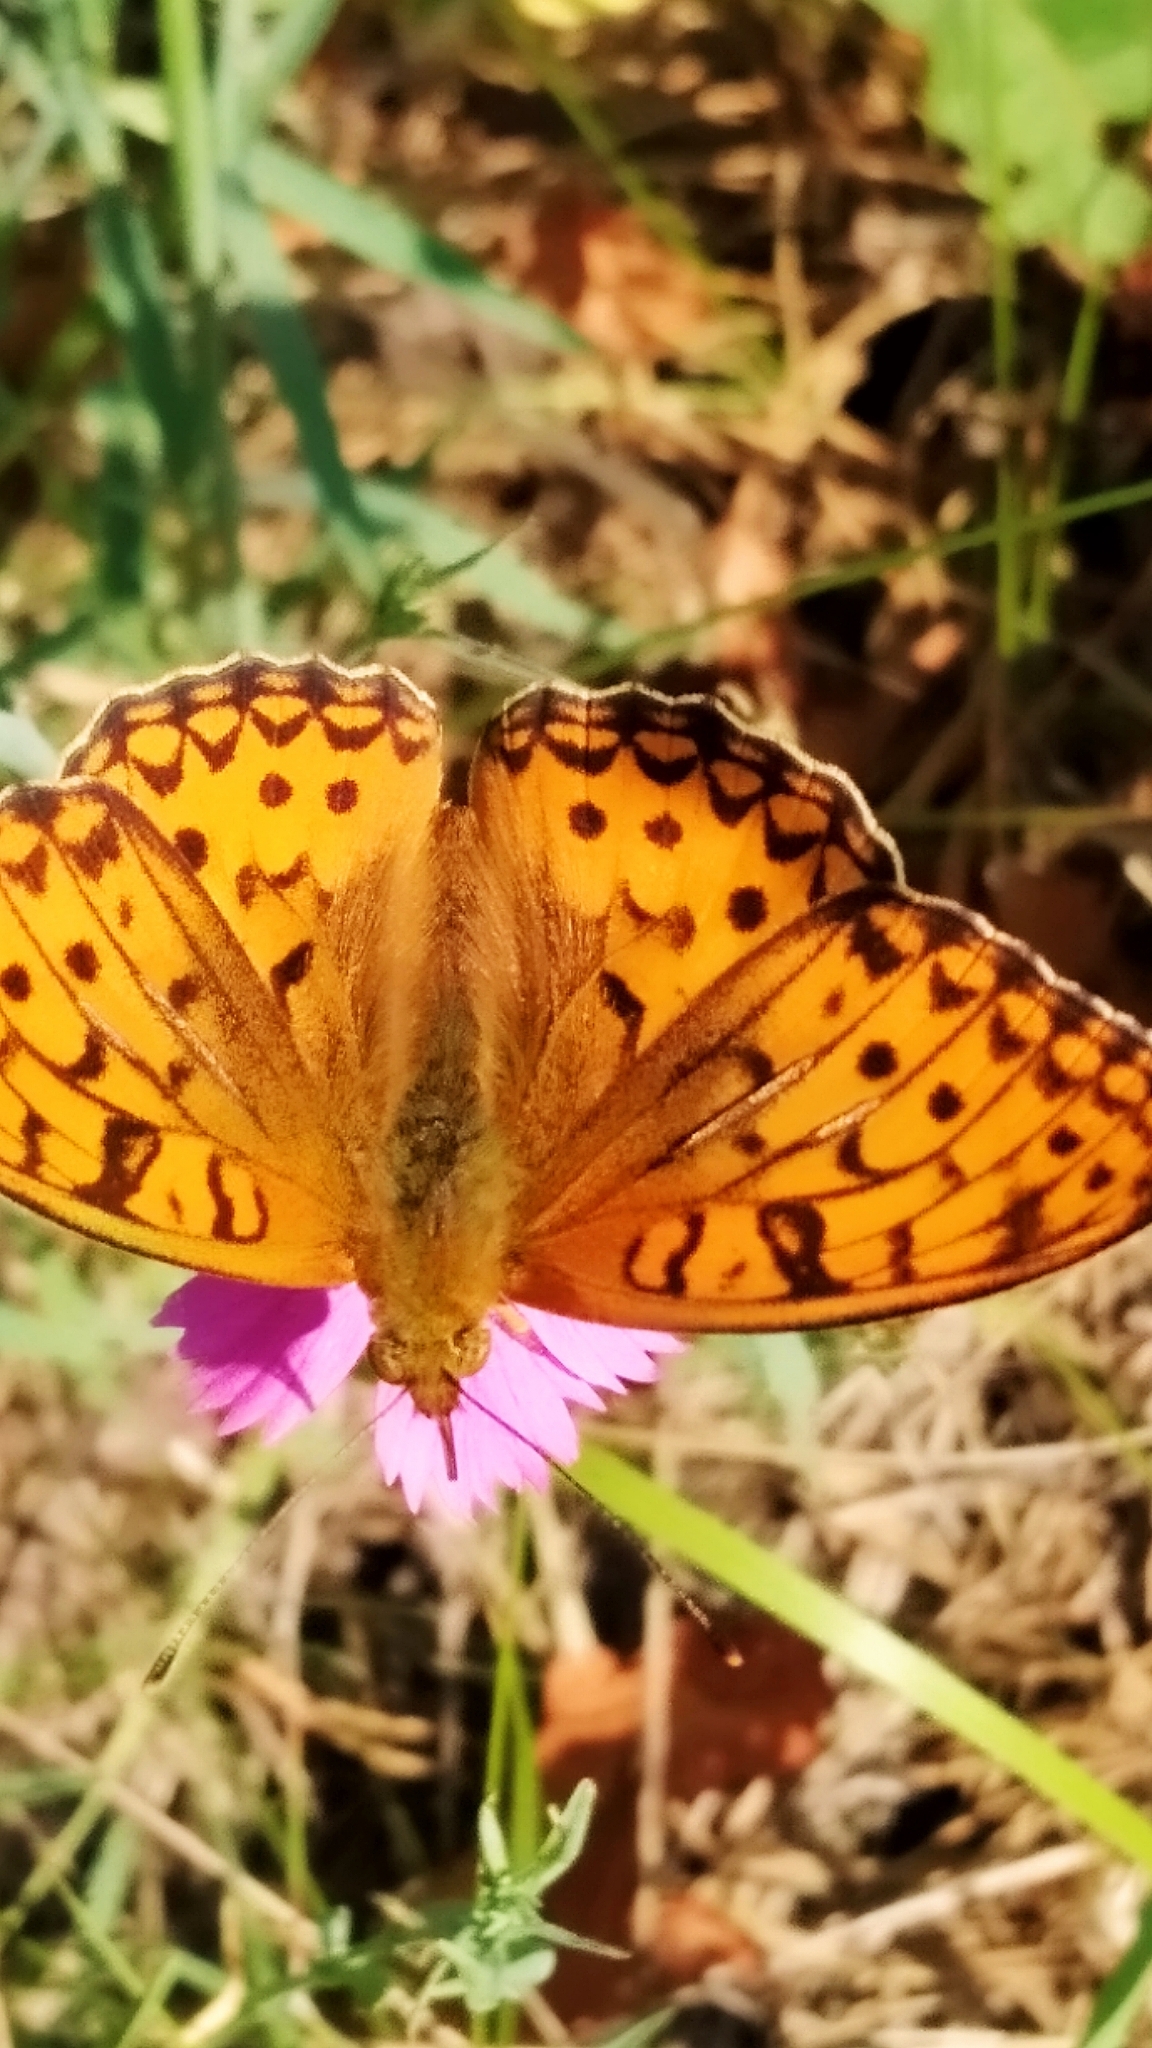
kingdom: Animalia
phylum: Arthropoda
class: Insecta
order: Lepidoptera
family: Nymphalidae
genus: Fabriciana
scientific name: Fabriciana adippe
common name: High brown fritillary
